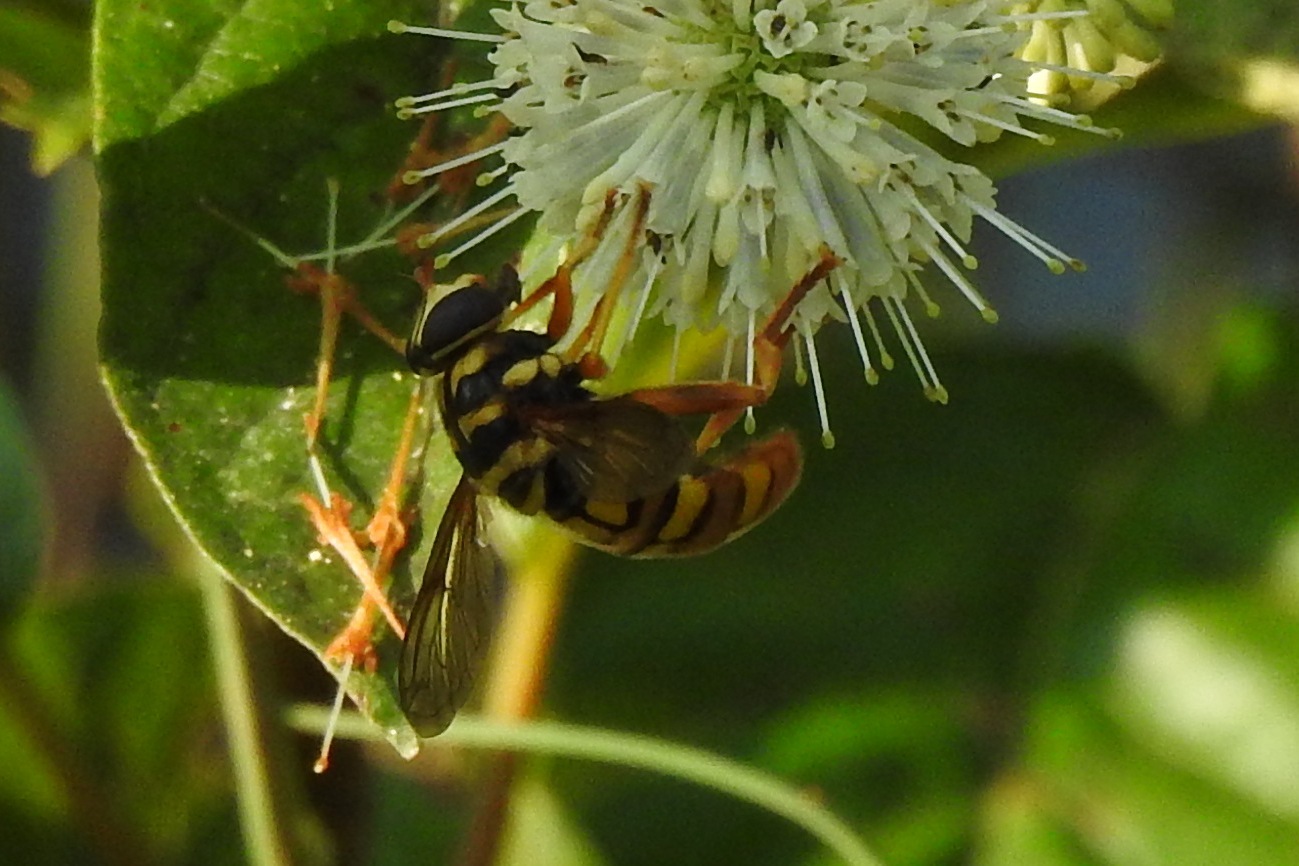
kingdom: Animalia
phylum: Arthropoda
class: Insecta
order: Diptera
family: Syrphidae
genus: Milesia
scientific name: Milesia virginiensis
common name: Virginia giant
